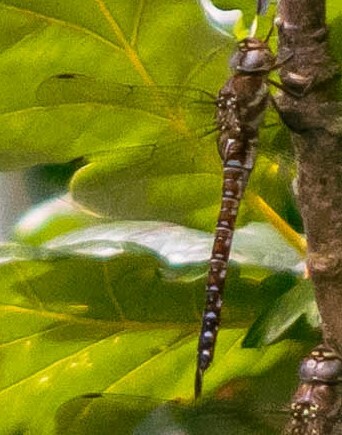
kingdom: Animalia
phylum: Arthropoda
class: Insecta
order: Odonata
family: Aeshnidae
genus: Aeshna
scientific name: Aeshna mixta
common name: Migrant hawker
